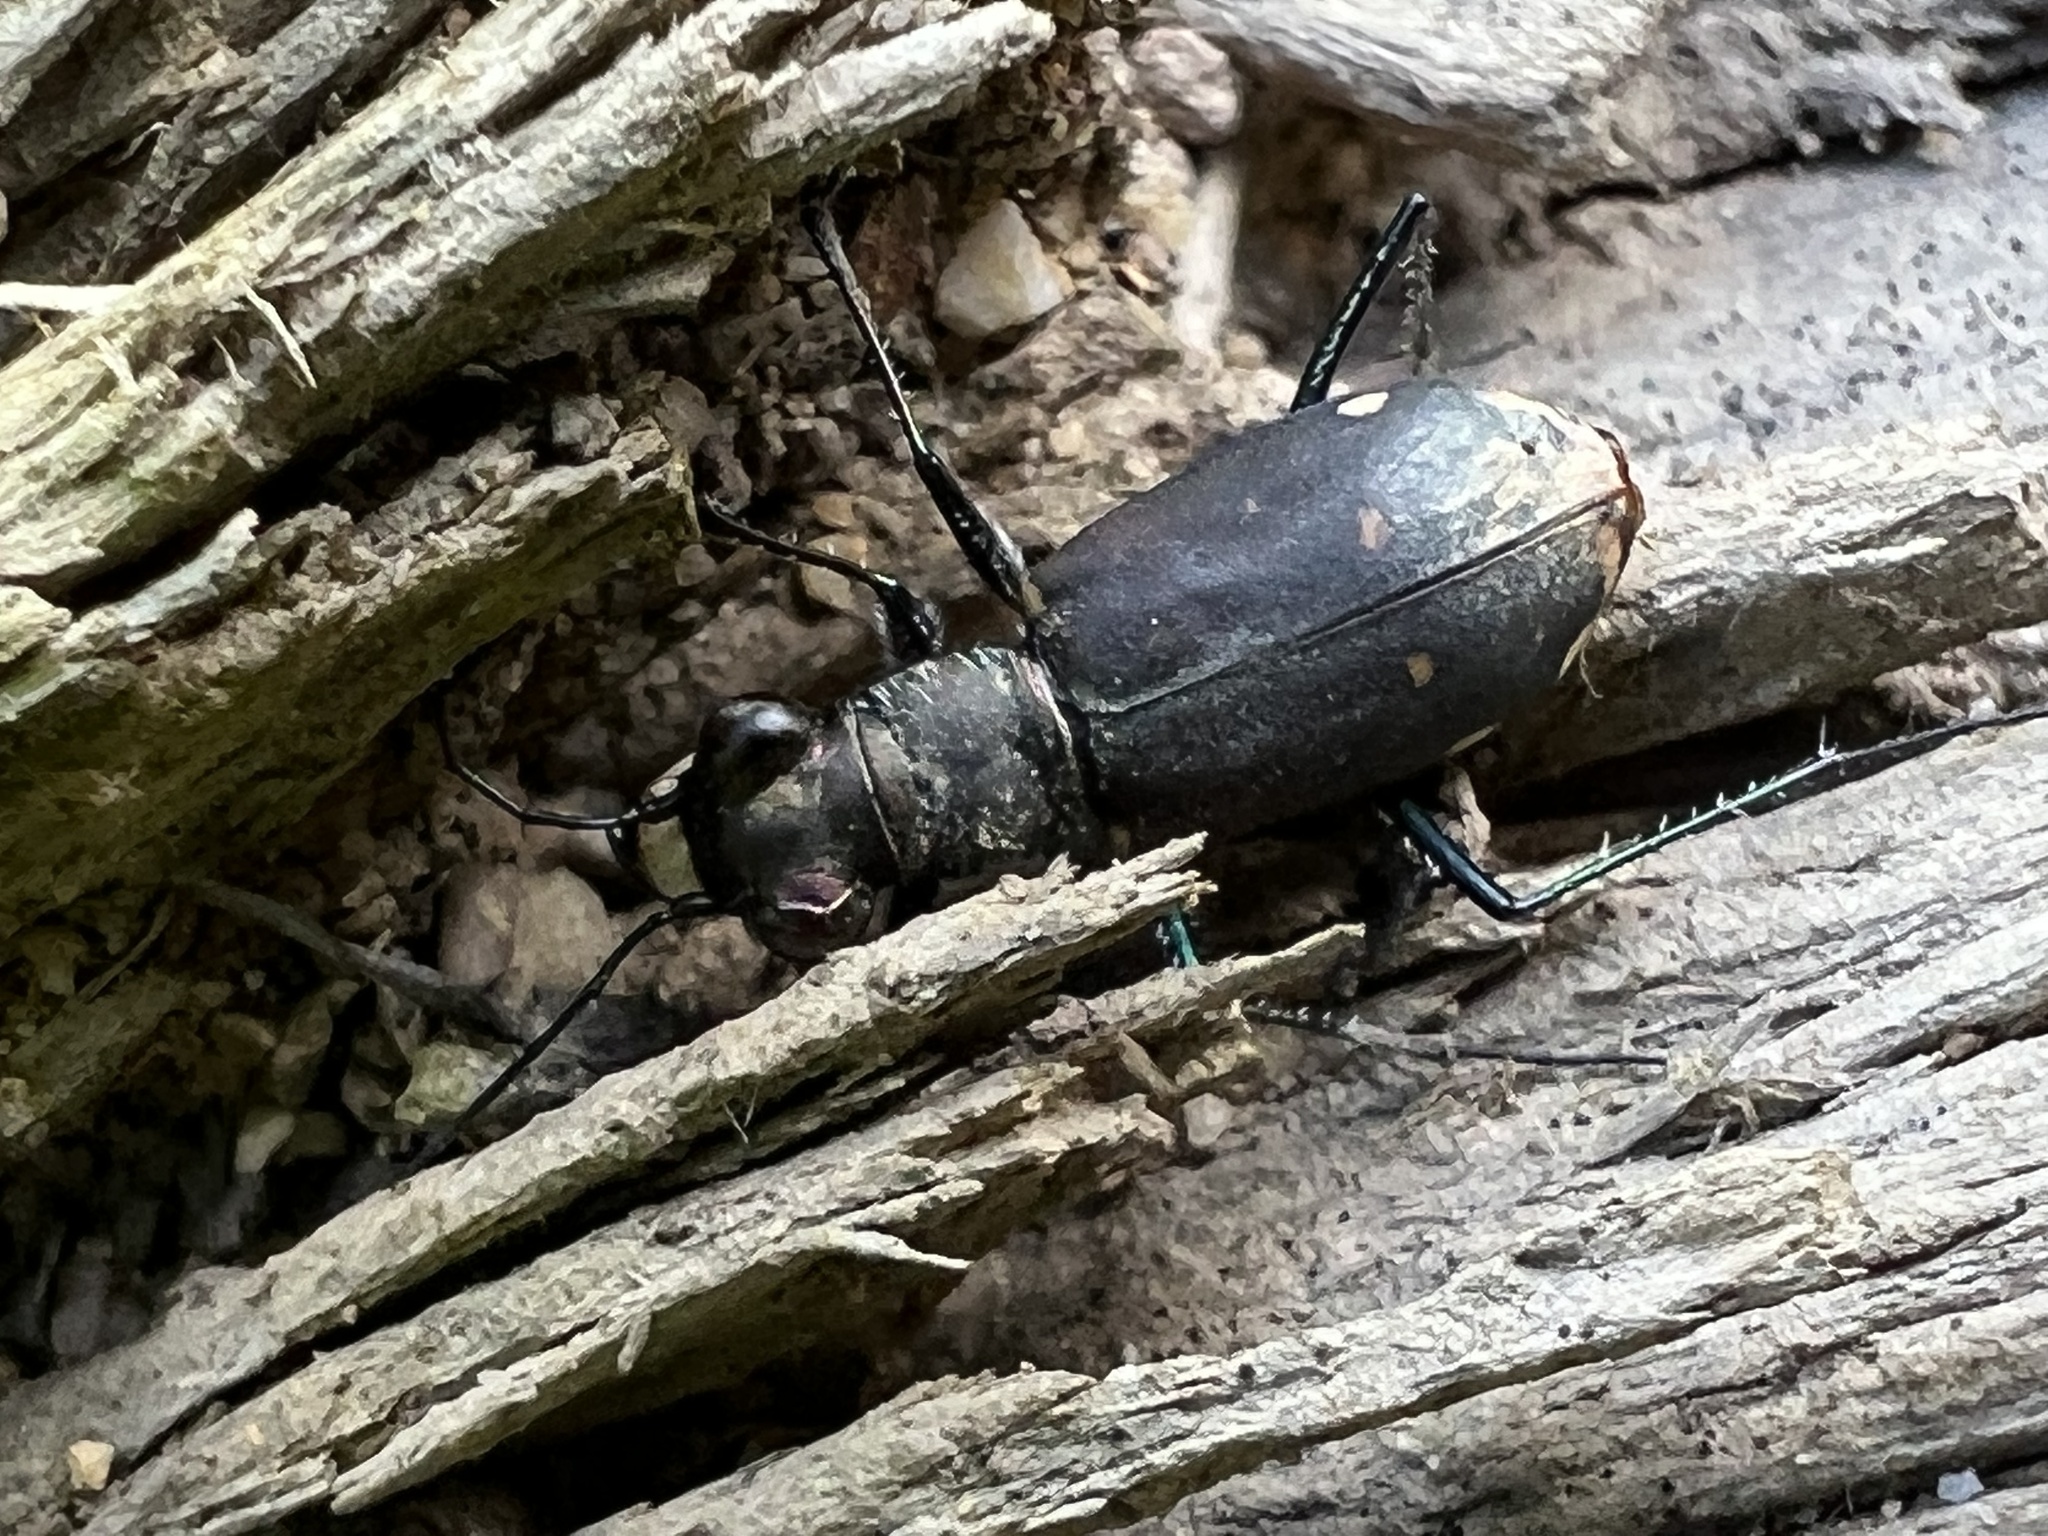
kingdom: Animalia
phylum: Arthropoda
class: Insecta
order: Coleoptera
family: Carabidae
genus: Cicindela
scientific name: Cicindela rufiventris
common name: Eastern red-bellied tiger beetle
